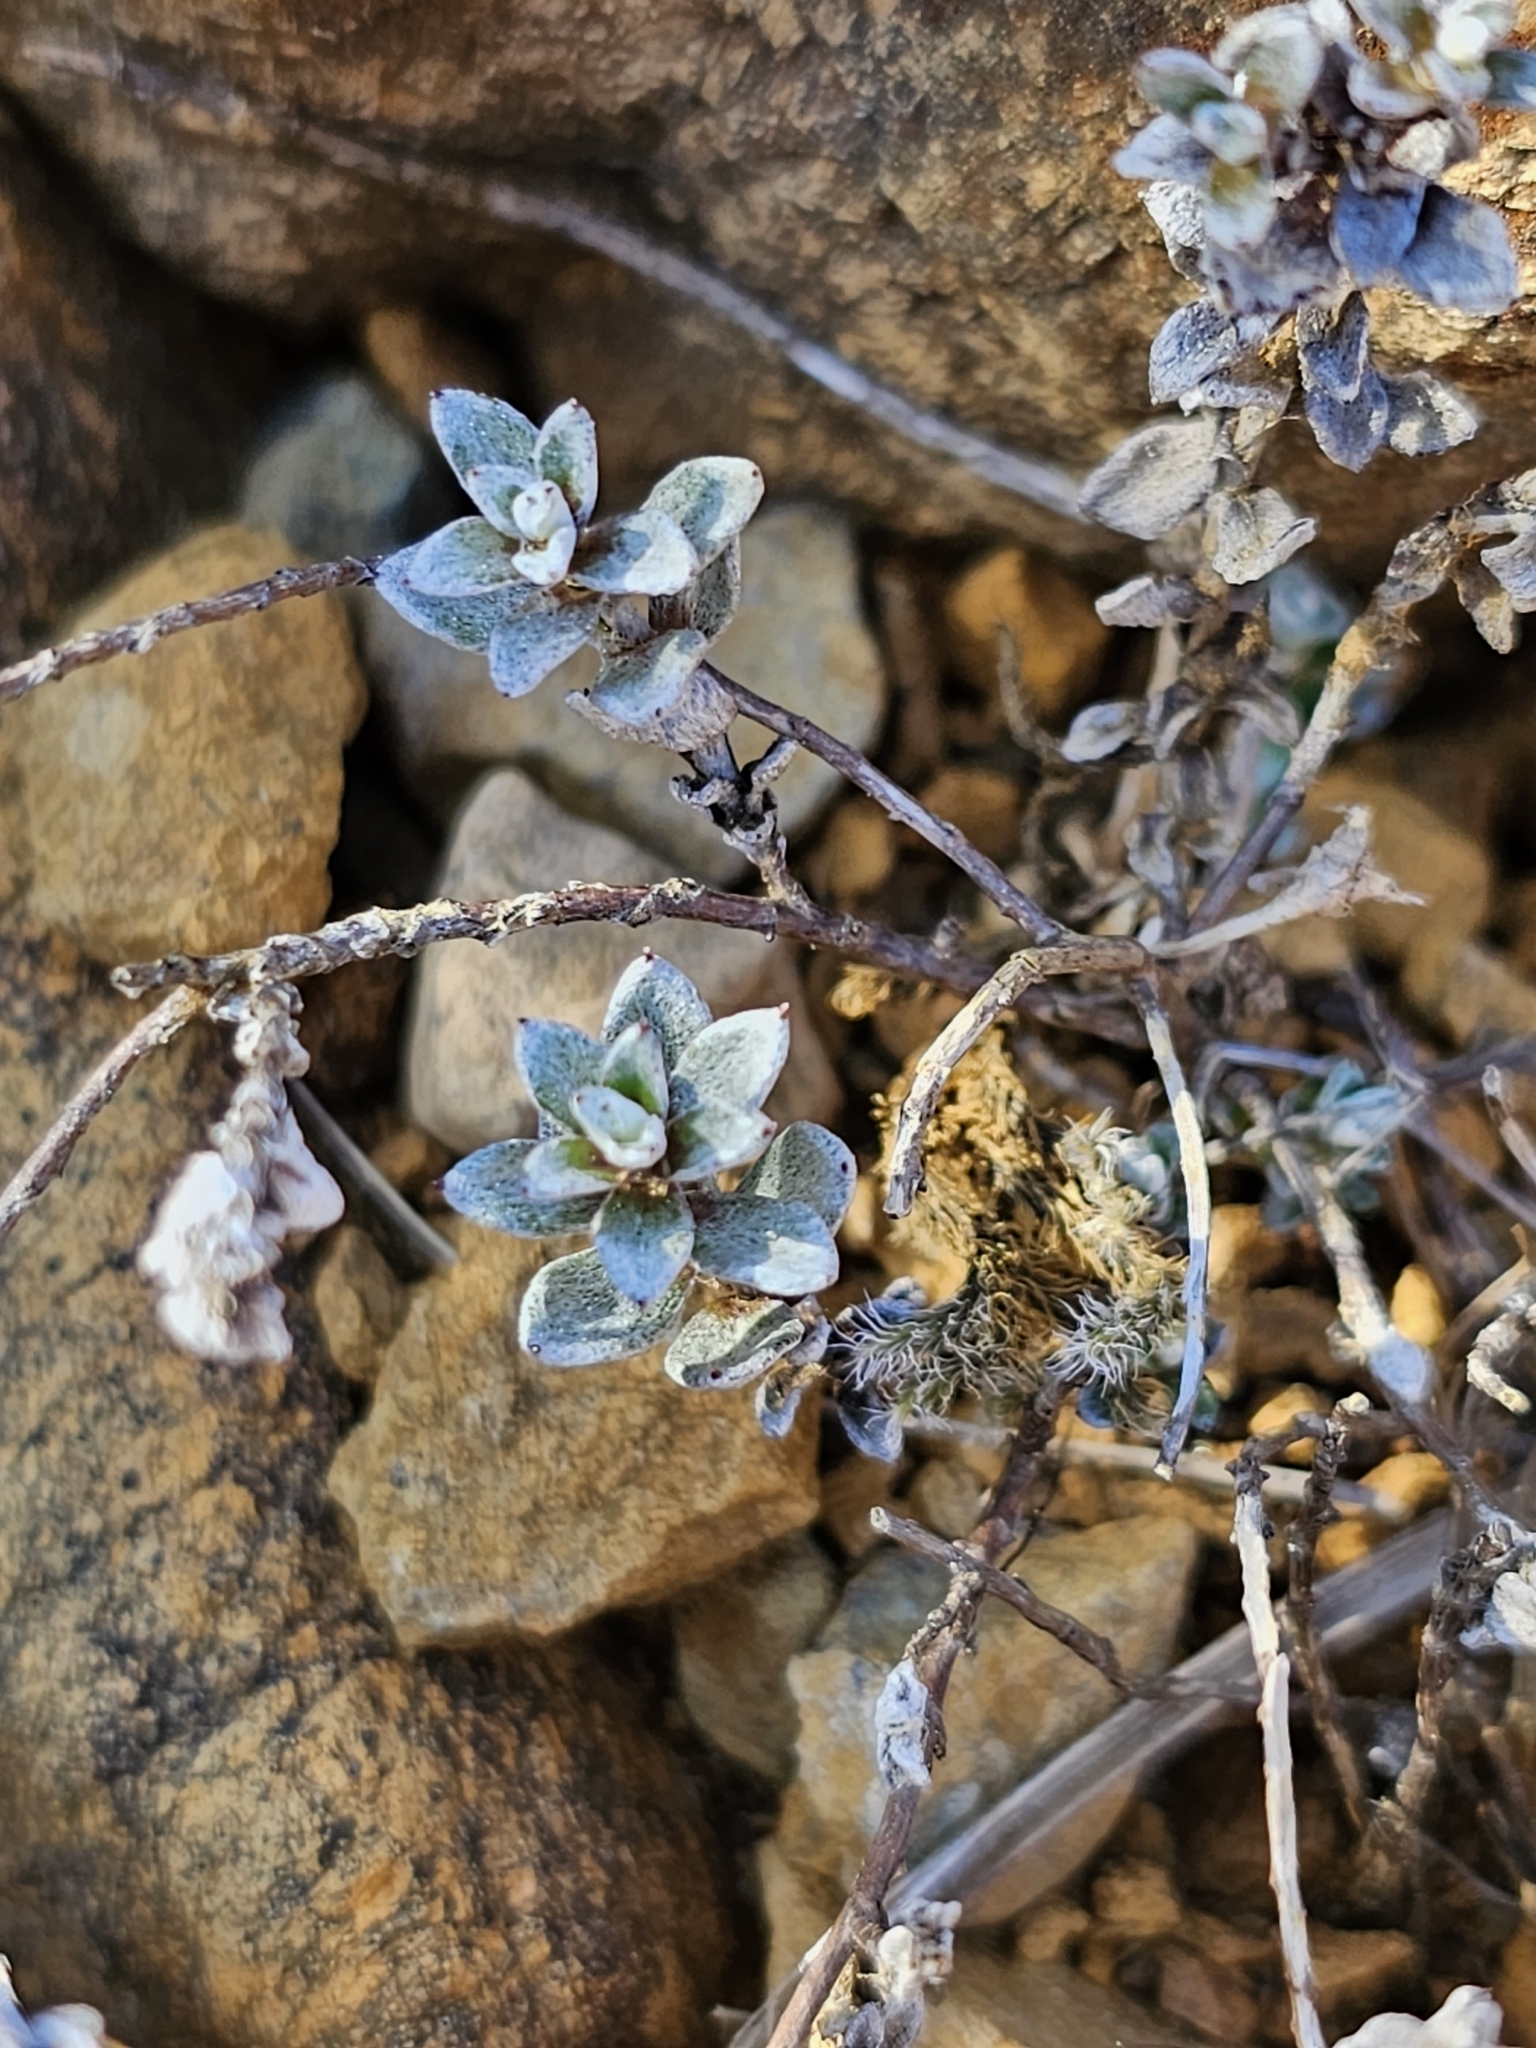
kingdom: Plantae
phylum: Tracheophyta
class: Magnoliopsida
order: Asterales
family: Asteraceae
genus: Anaphalioides
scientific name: Anaphalioides bellidioides
